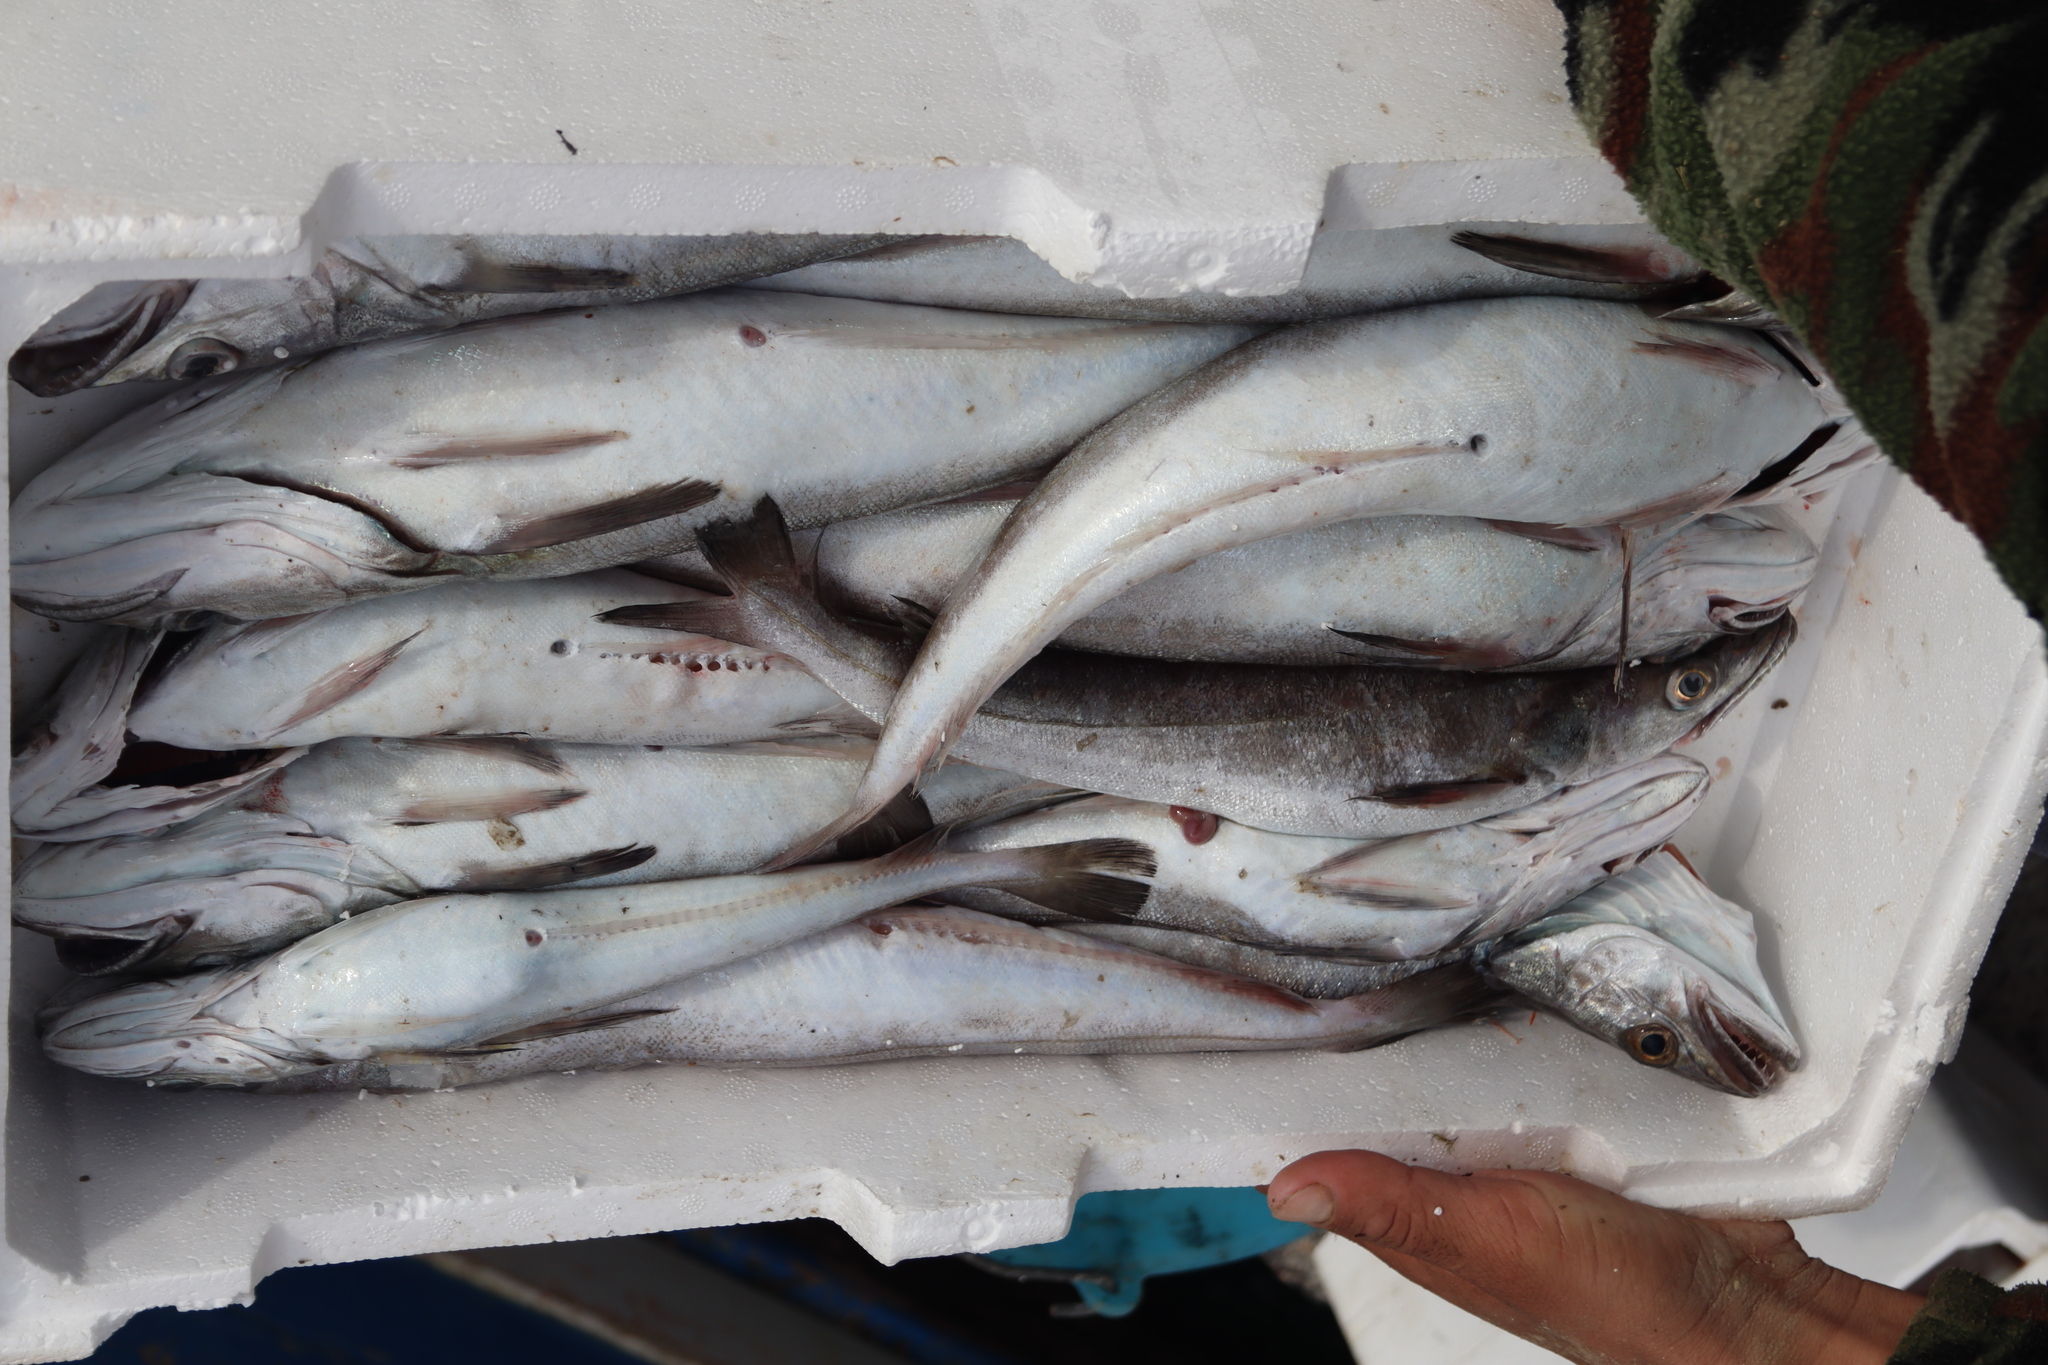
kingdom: Animalia
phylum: Chordata
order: Gadiformes
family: Merlucciidae
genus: Merluccius
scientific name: Merluccius merluccius
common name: European hake
